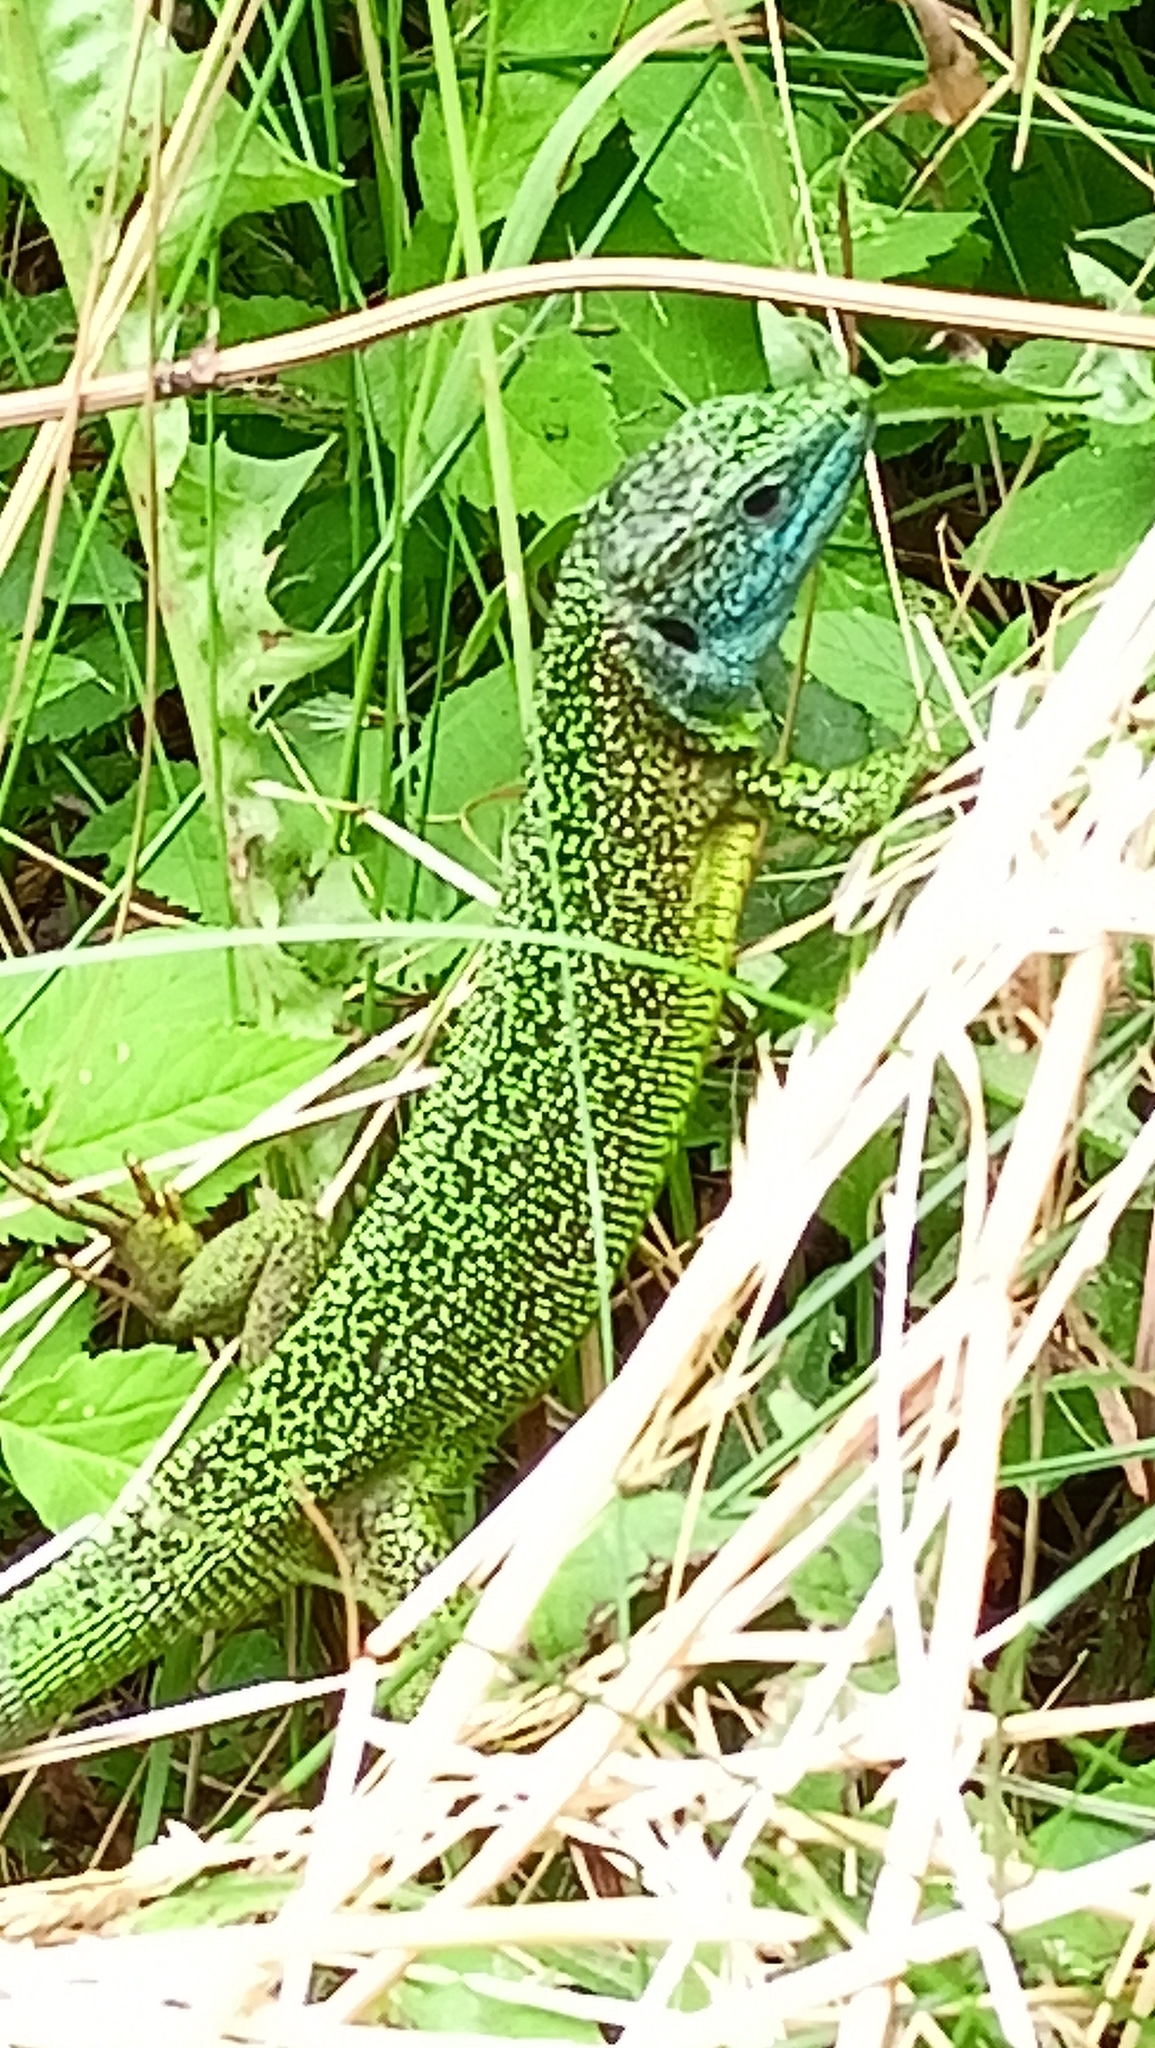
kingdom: Animalia
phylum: Chordata
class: Squamata
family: Lacertidae
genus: Lacerta
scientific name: Lacerta bilineata
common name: Western green lizard
